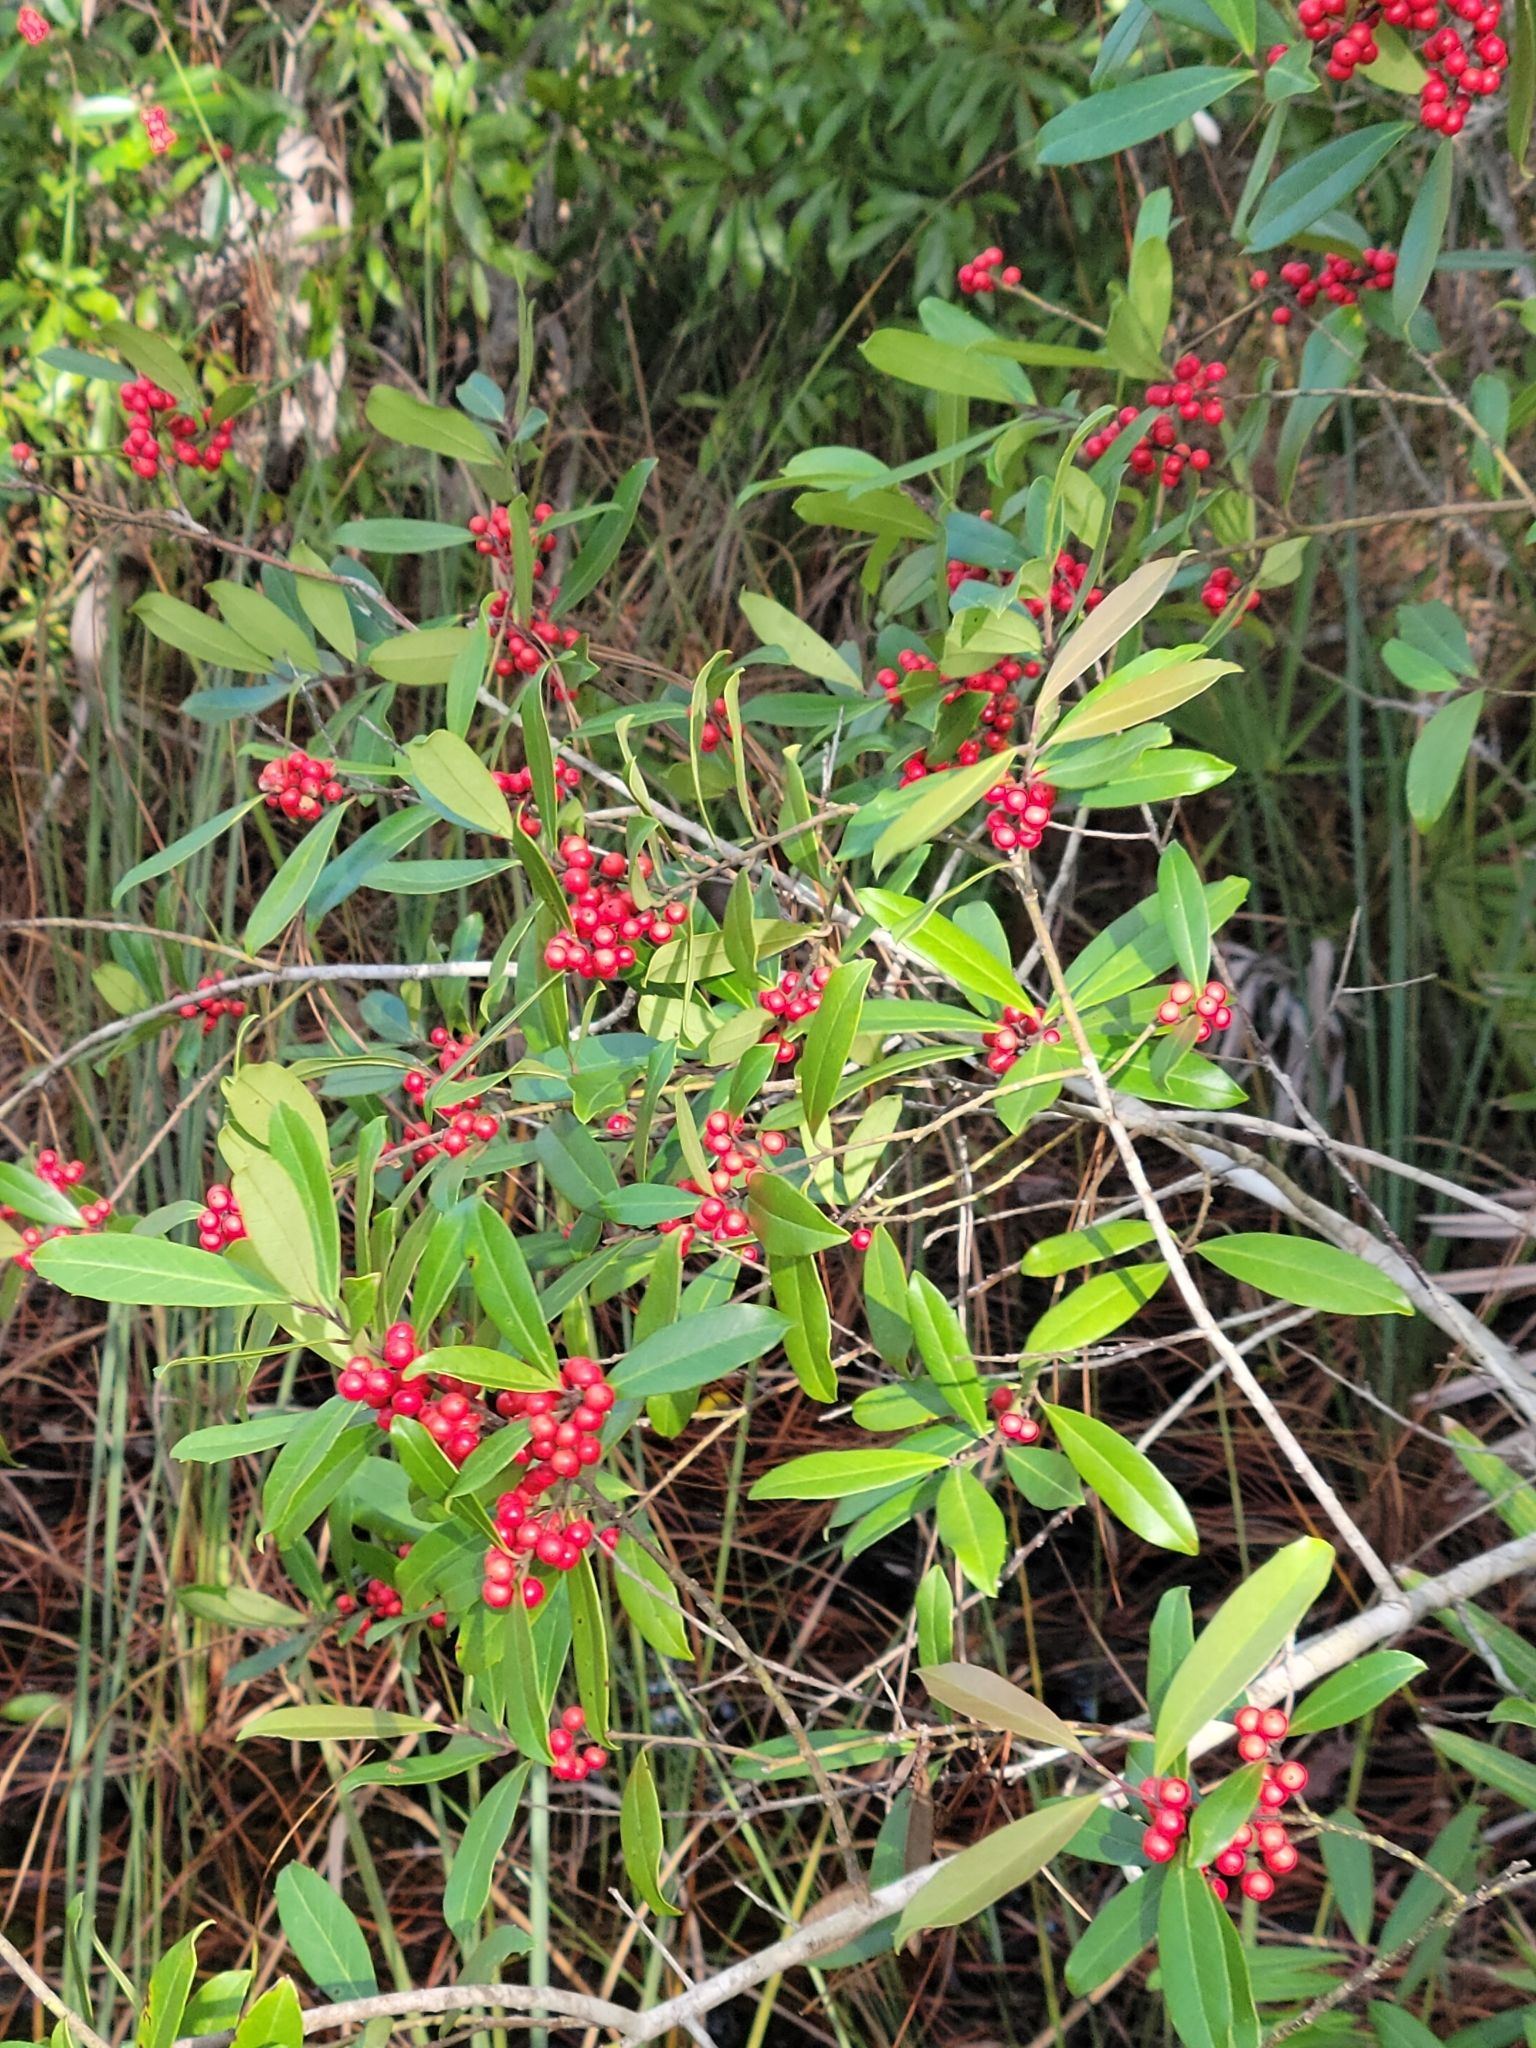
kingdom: Plantae
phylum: Tracheophyta
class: Magnoliopsida
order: Aquifoliales
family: Aquifoliaceae
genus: Ilex
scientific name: Ilex cassine
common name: Dahoon
